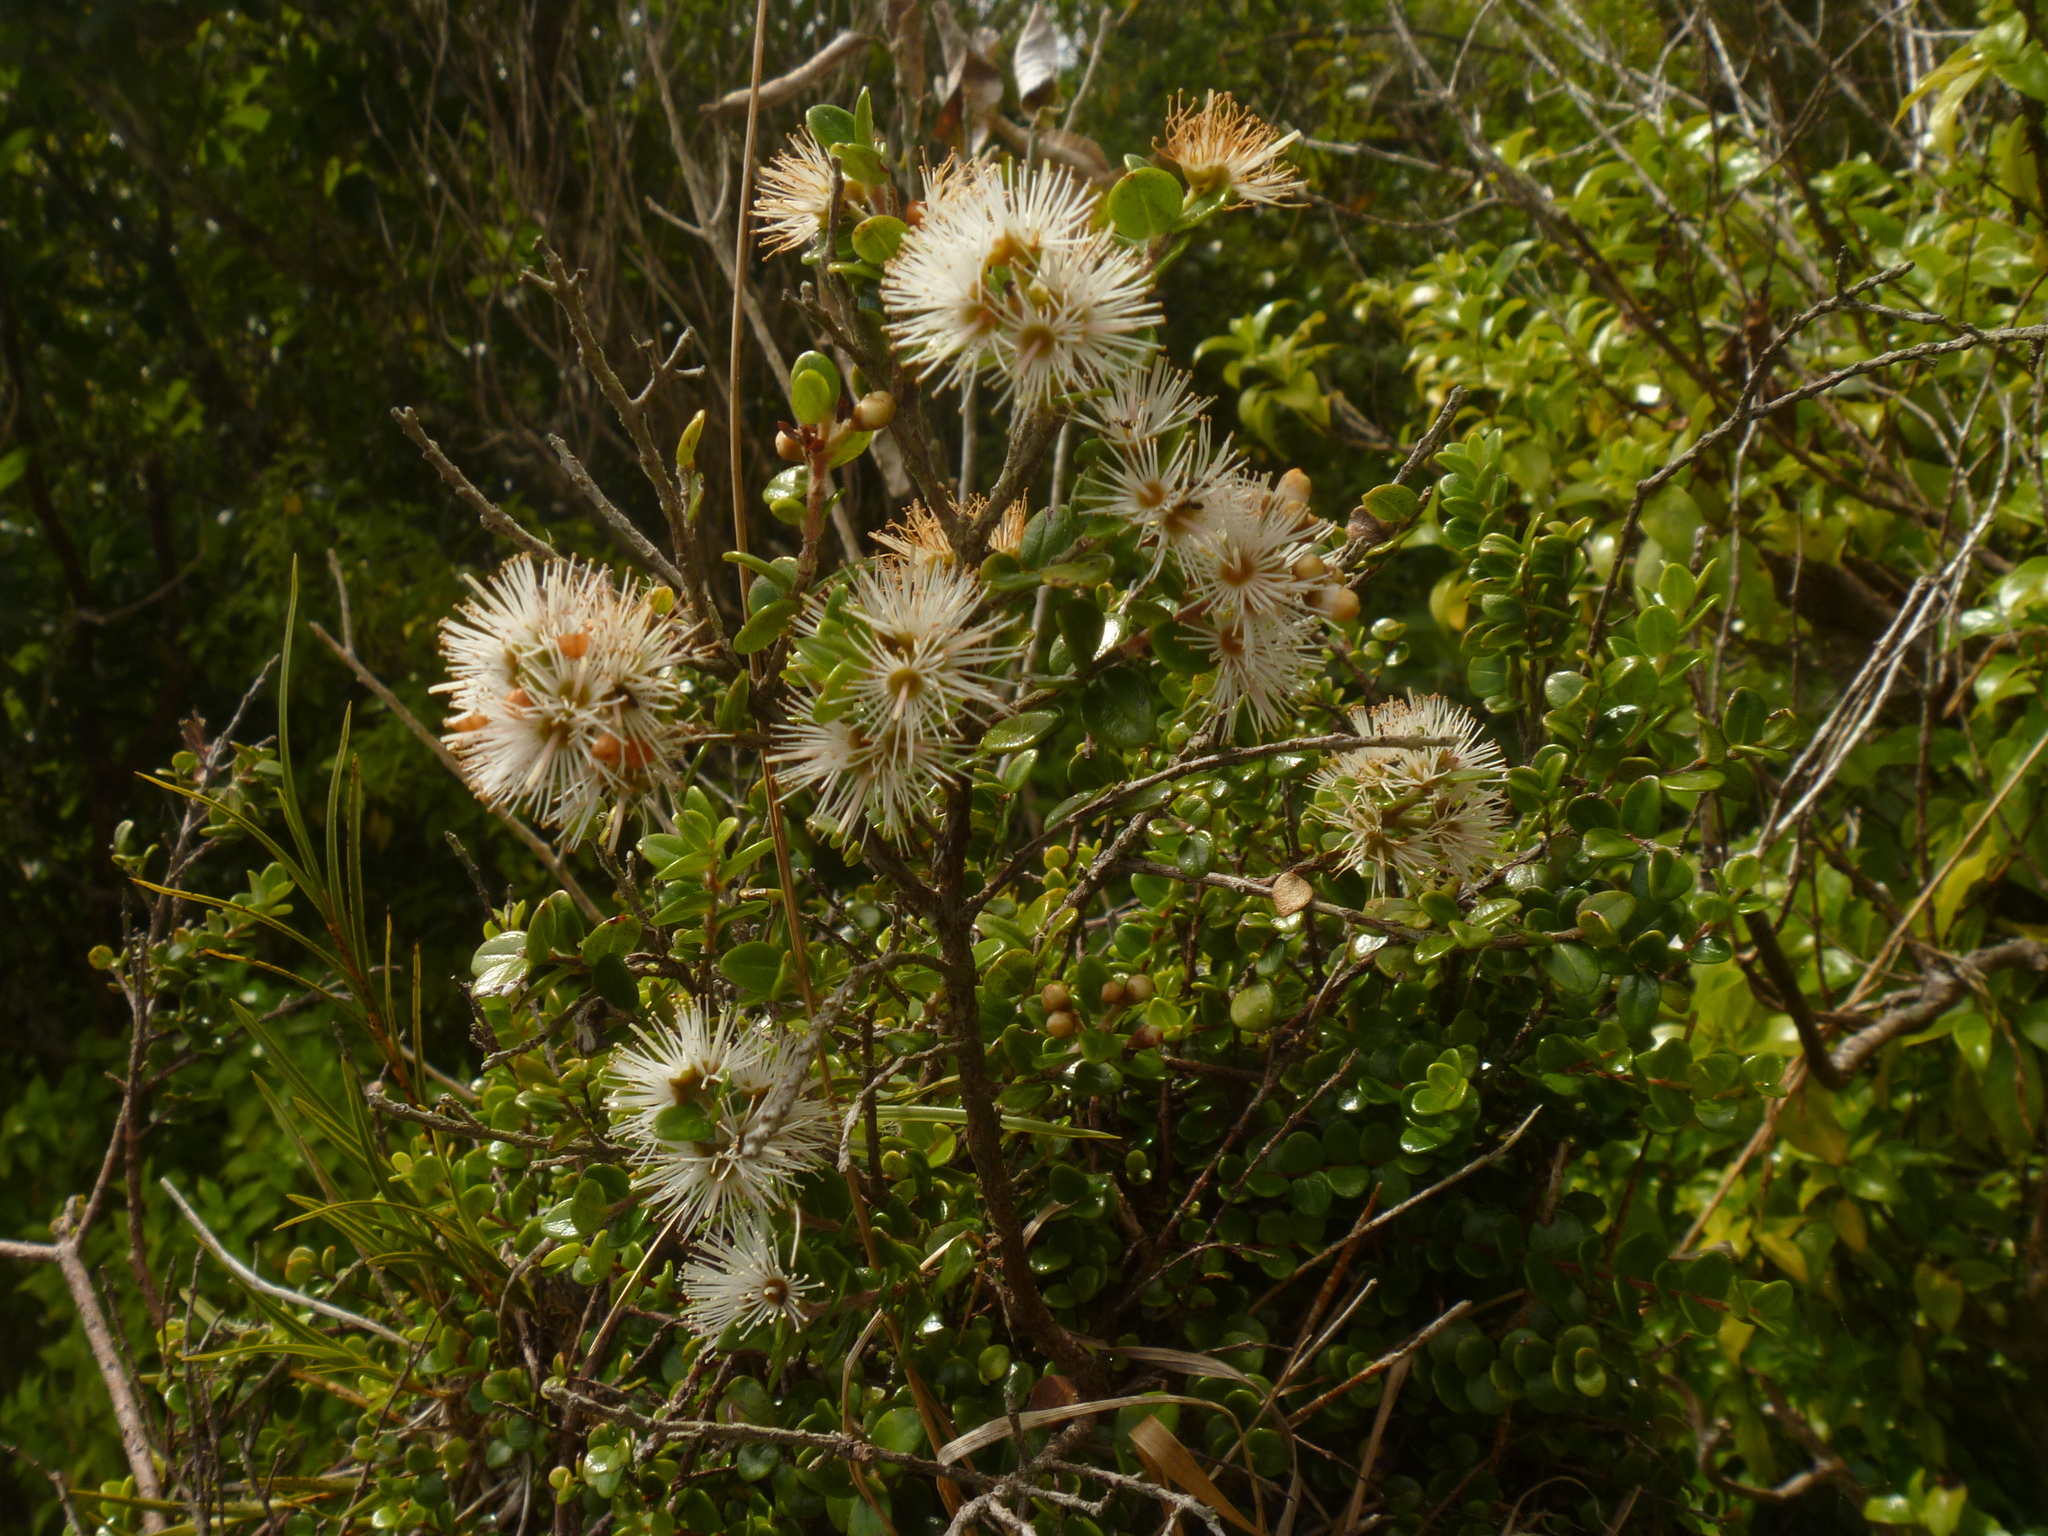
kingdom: Plantae
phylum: Tracheophyta
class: Magnoliopsida
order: Myrtales
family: Myrtaceae
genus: Metrosideros
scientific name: Metrosideros perforata
